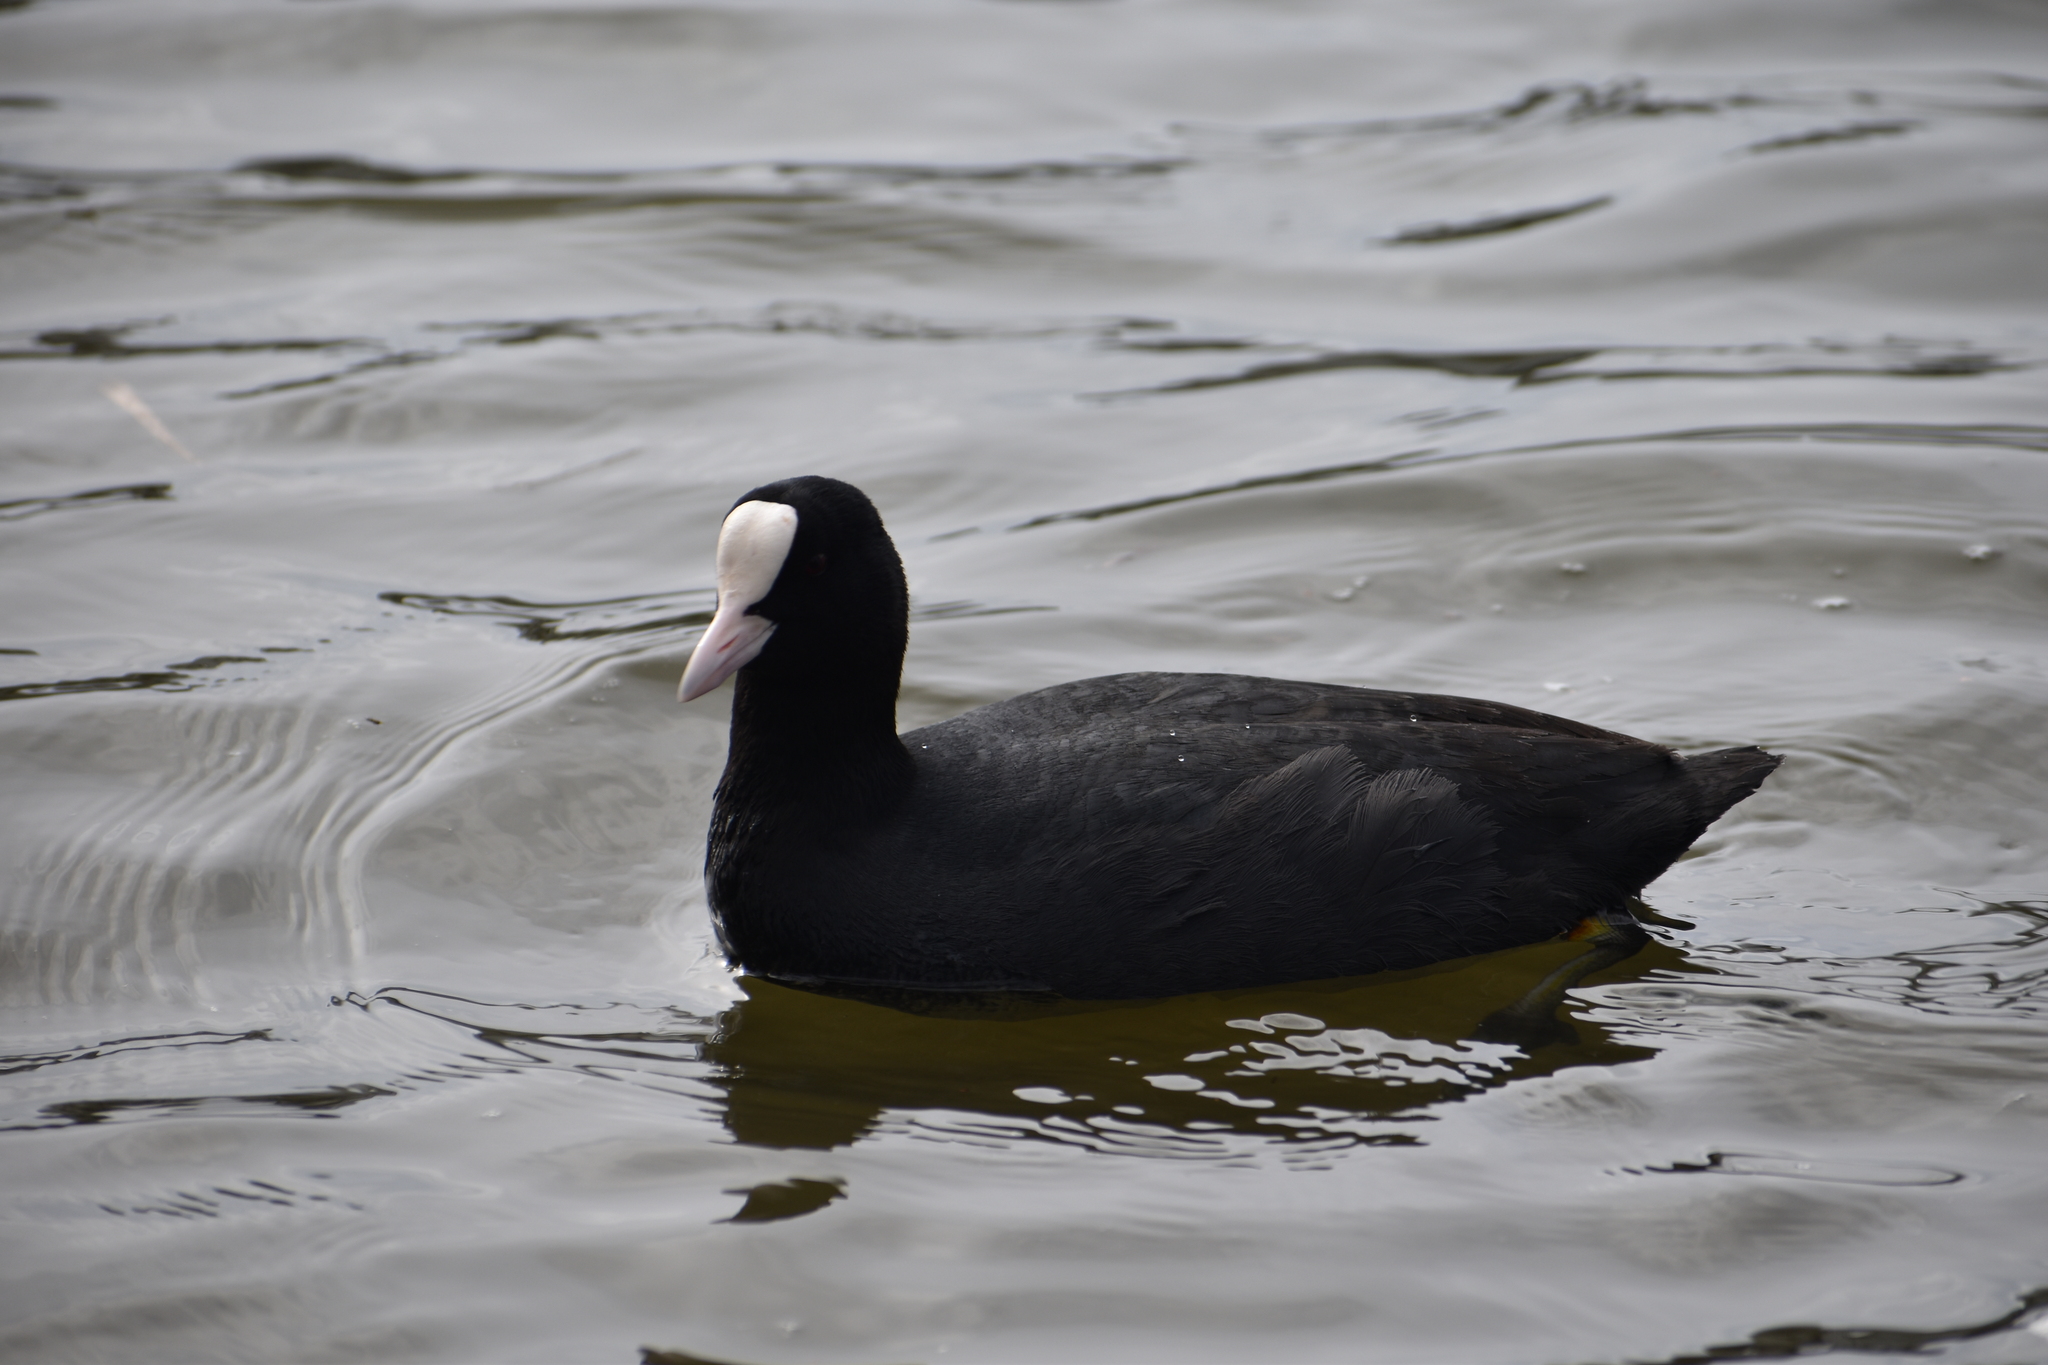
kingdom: Animalia
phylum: Chordata
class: Aves
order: Gruiformes
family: Rallidae
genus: Fulica
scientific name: Fulica atra
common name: Eurasian coot
